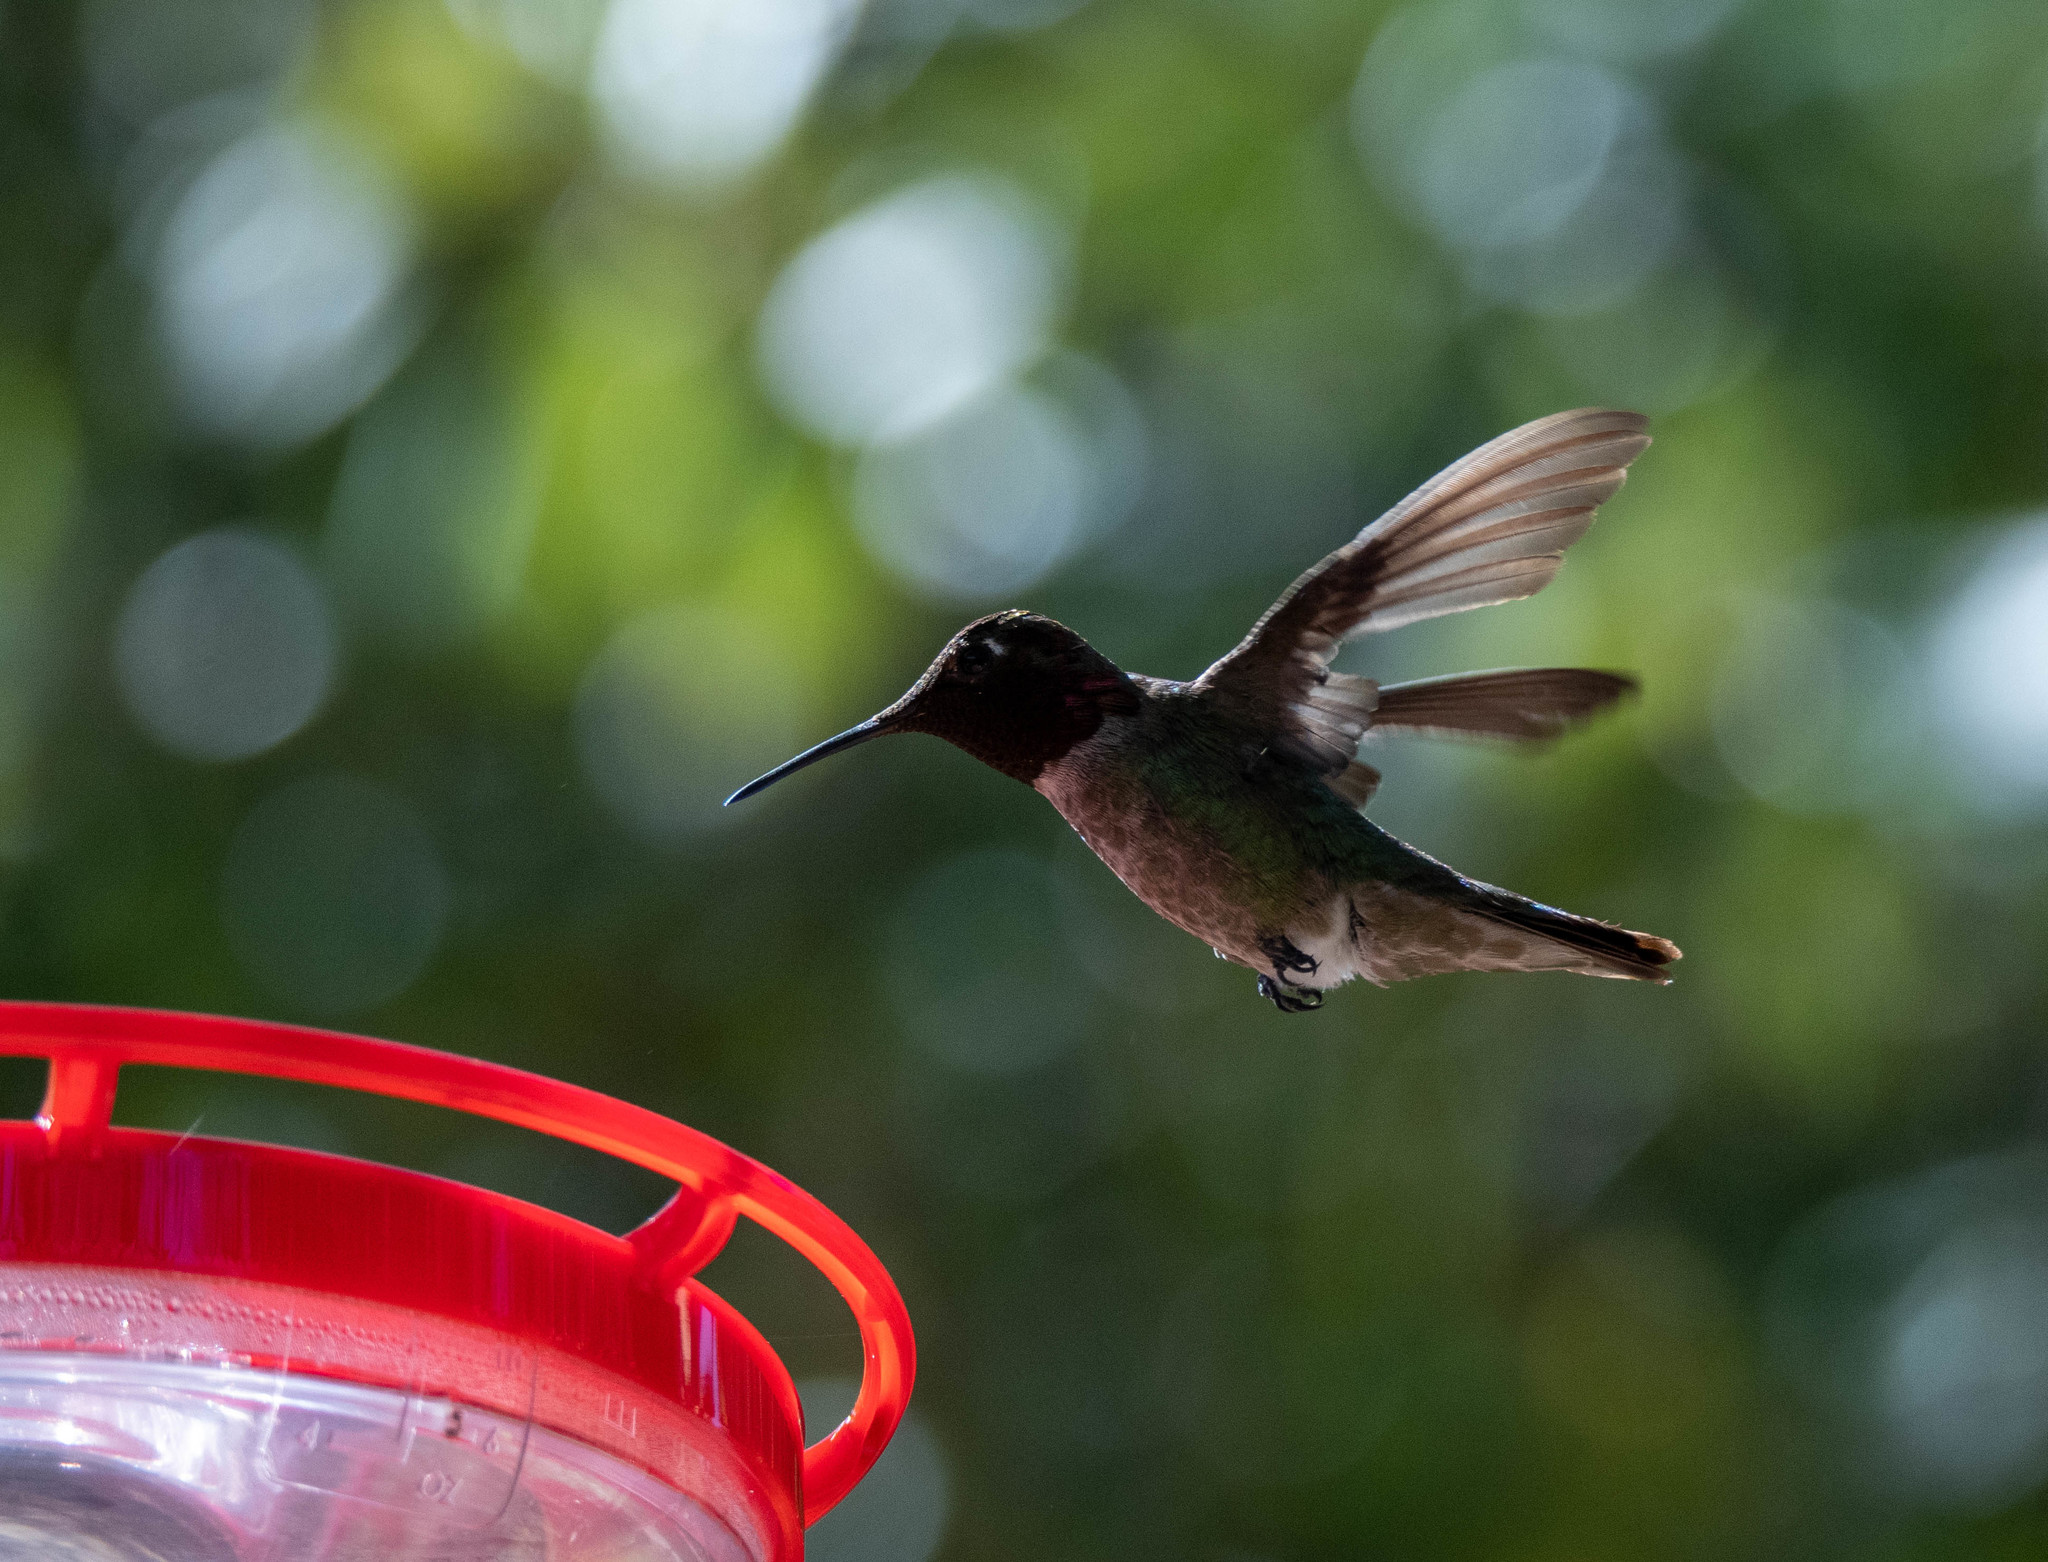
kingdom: Animalia
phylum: Chordata
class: Aves
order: Apodiformes
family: Trochilidae
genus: Calypte
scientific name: Calypte anna
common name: Anna's hummingbird
